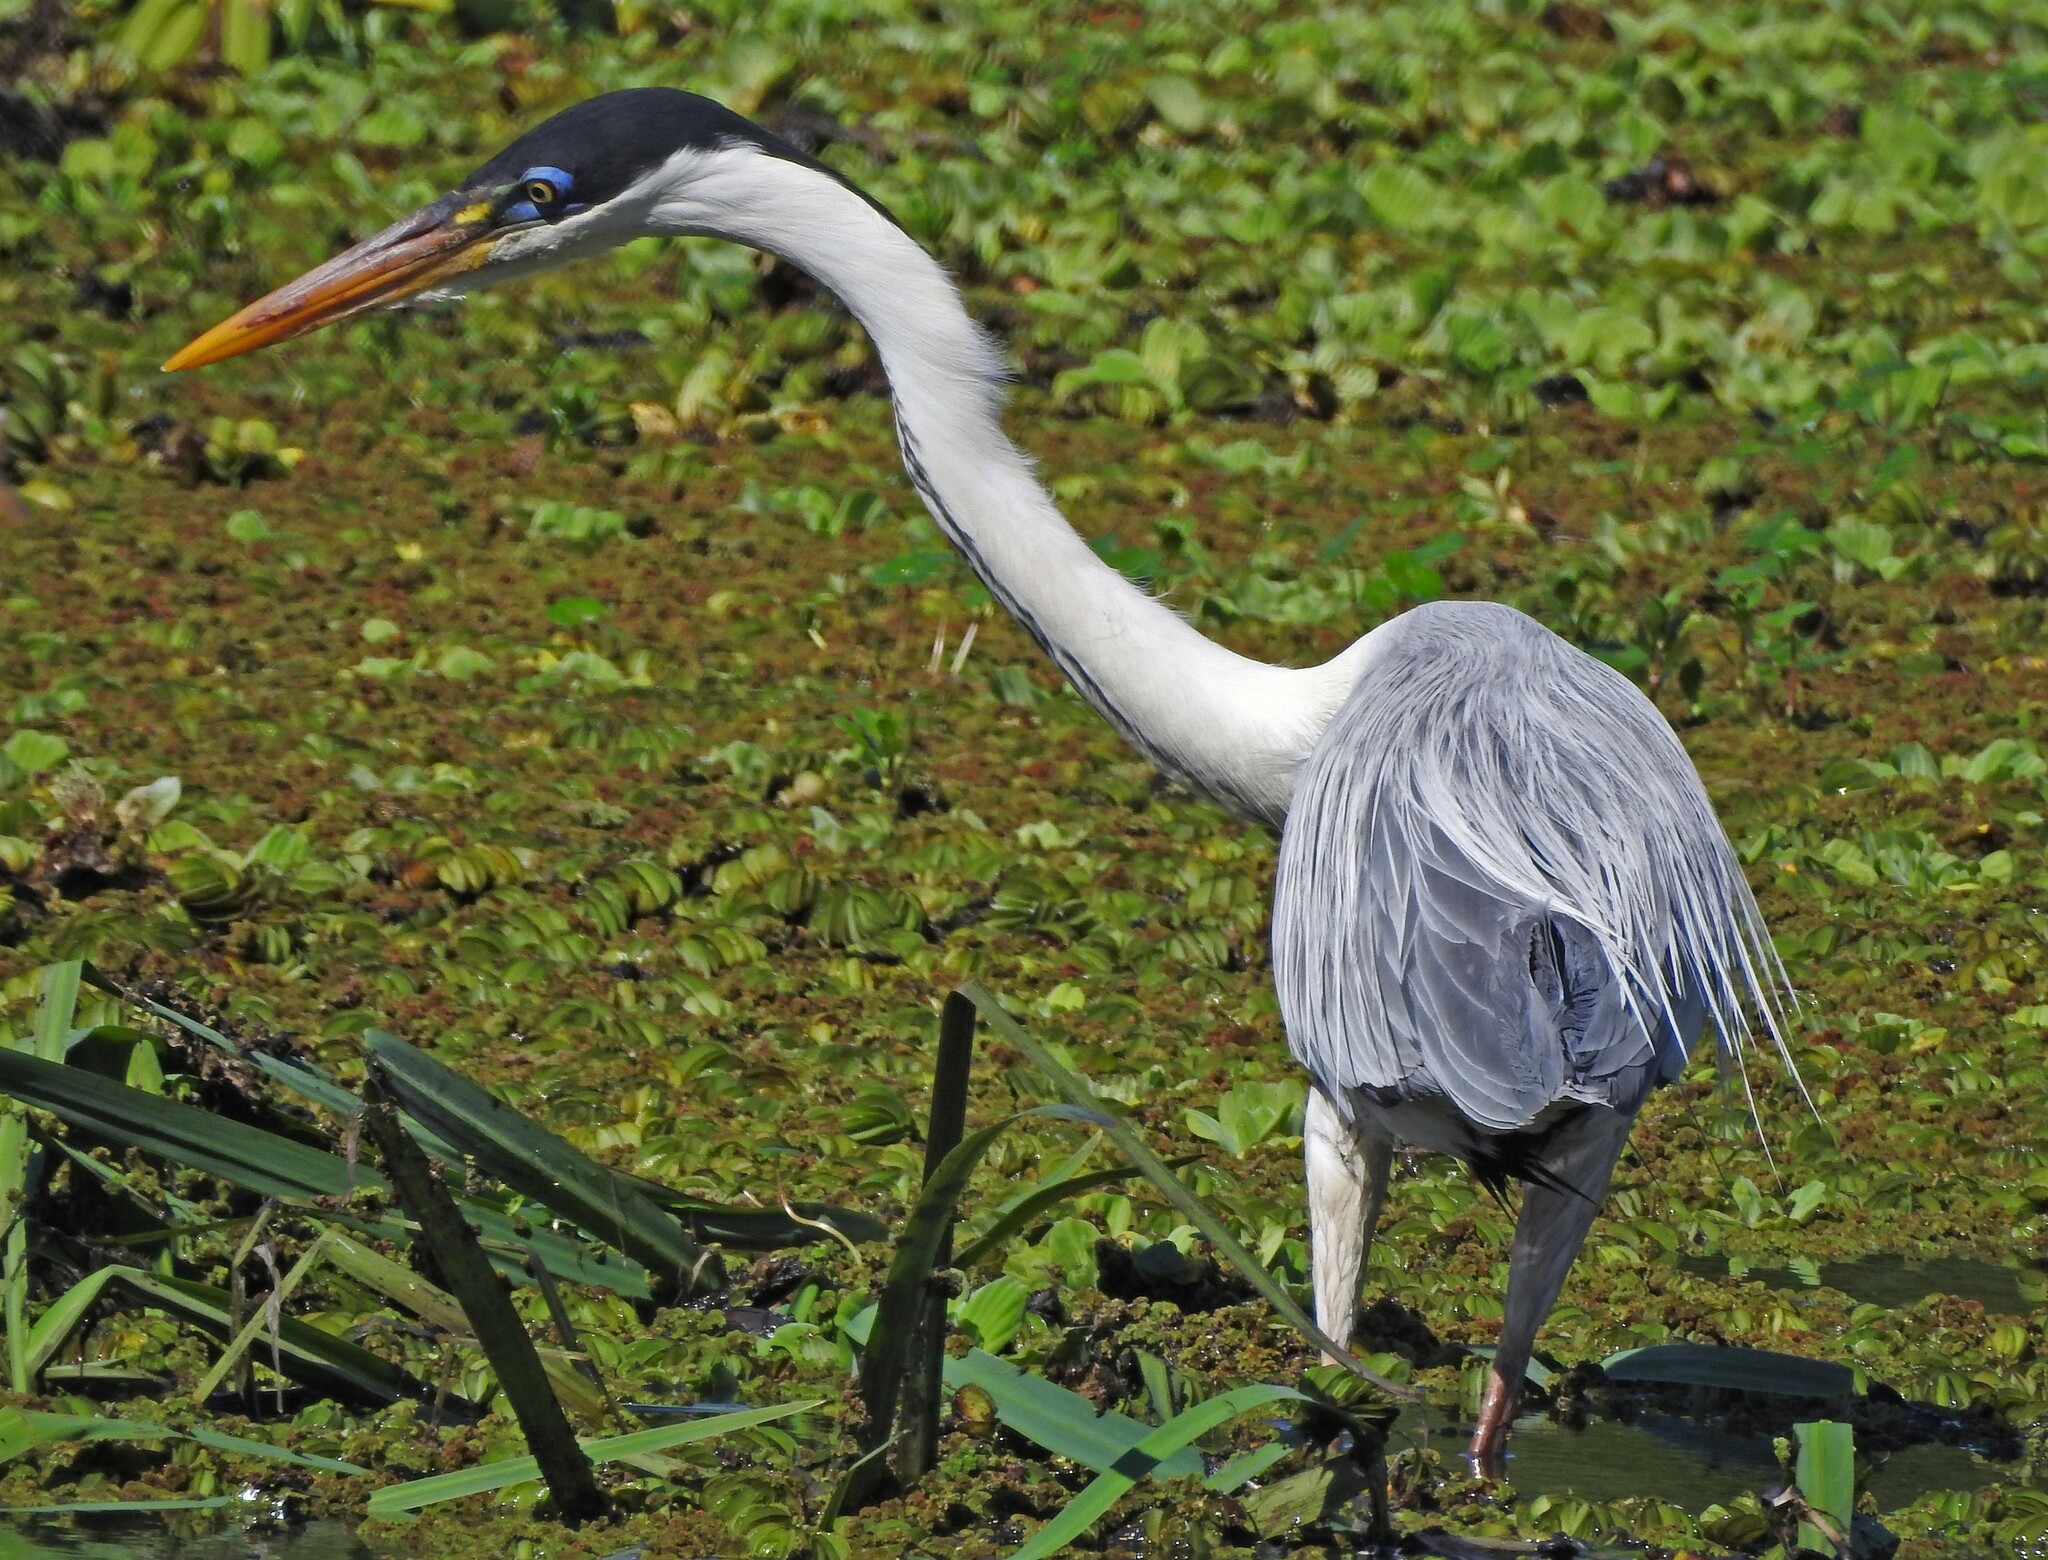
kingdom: Animalia
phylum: Chordata
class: Aves
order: Pelecaniformes
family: Ardeidae
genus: Ardea
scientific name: Ardea cocoi
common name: Cocoi heron
